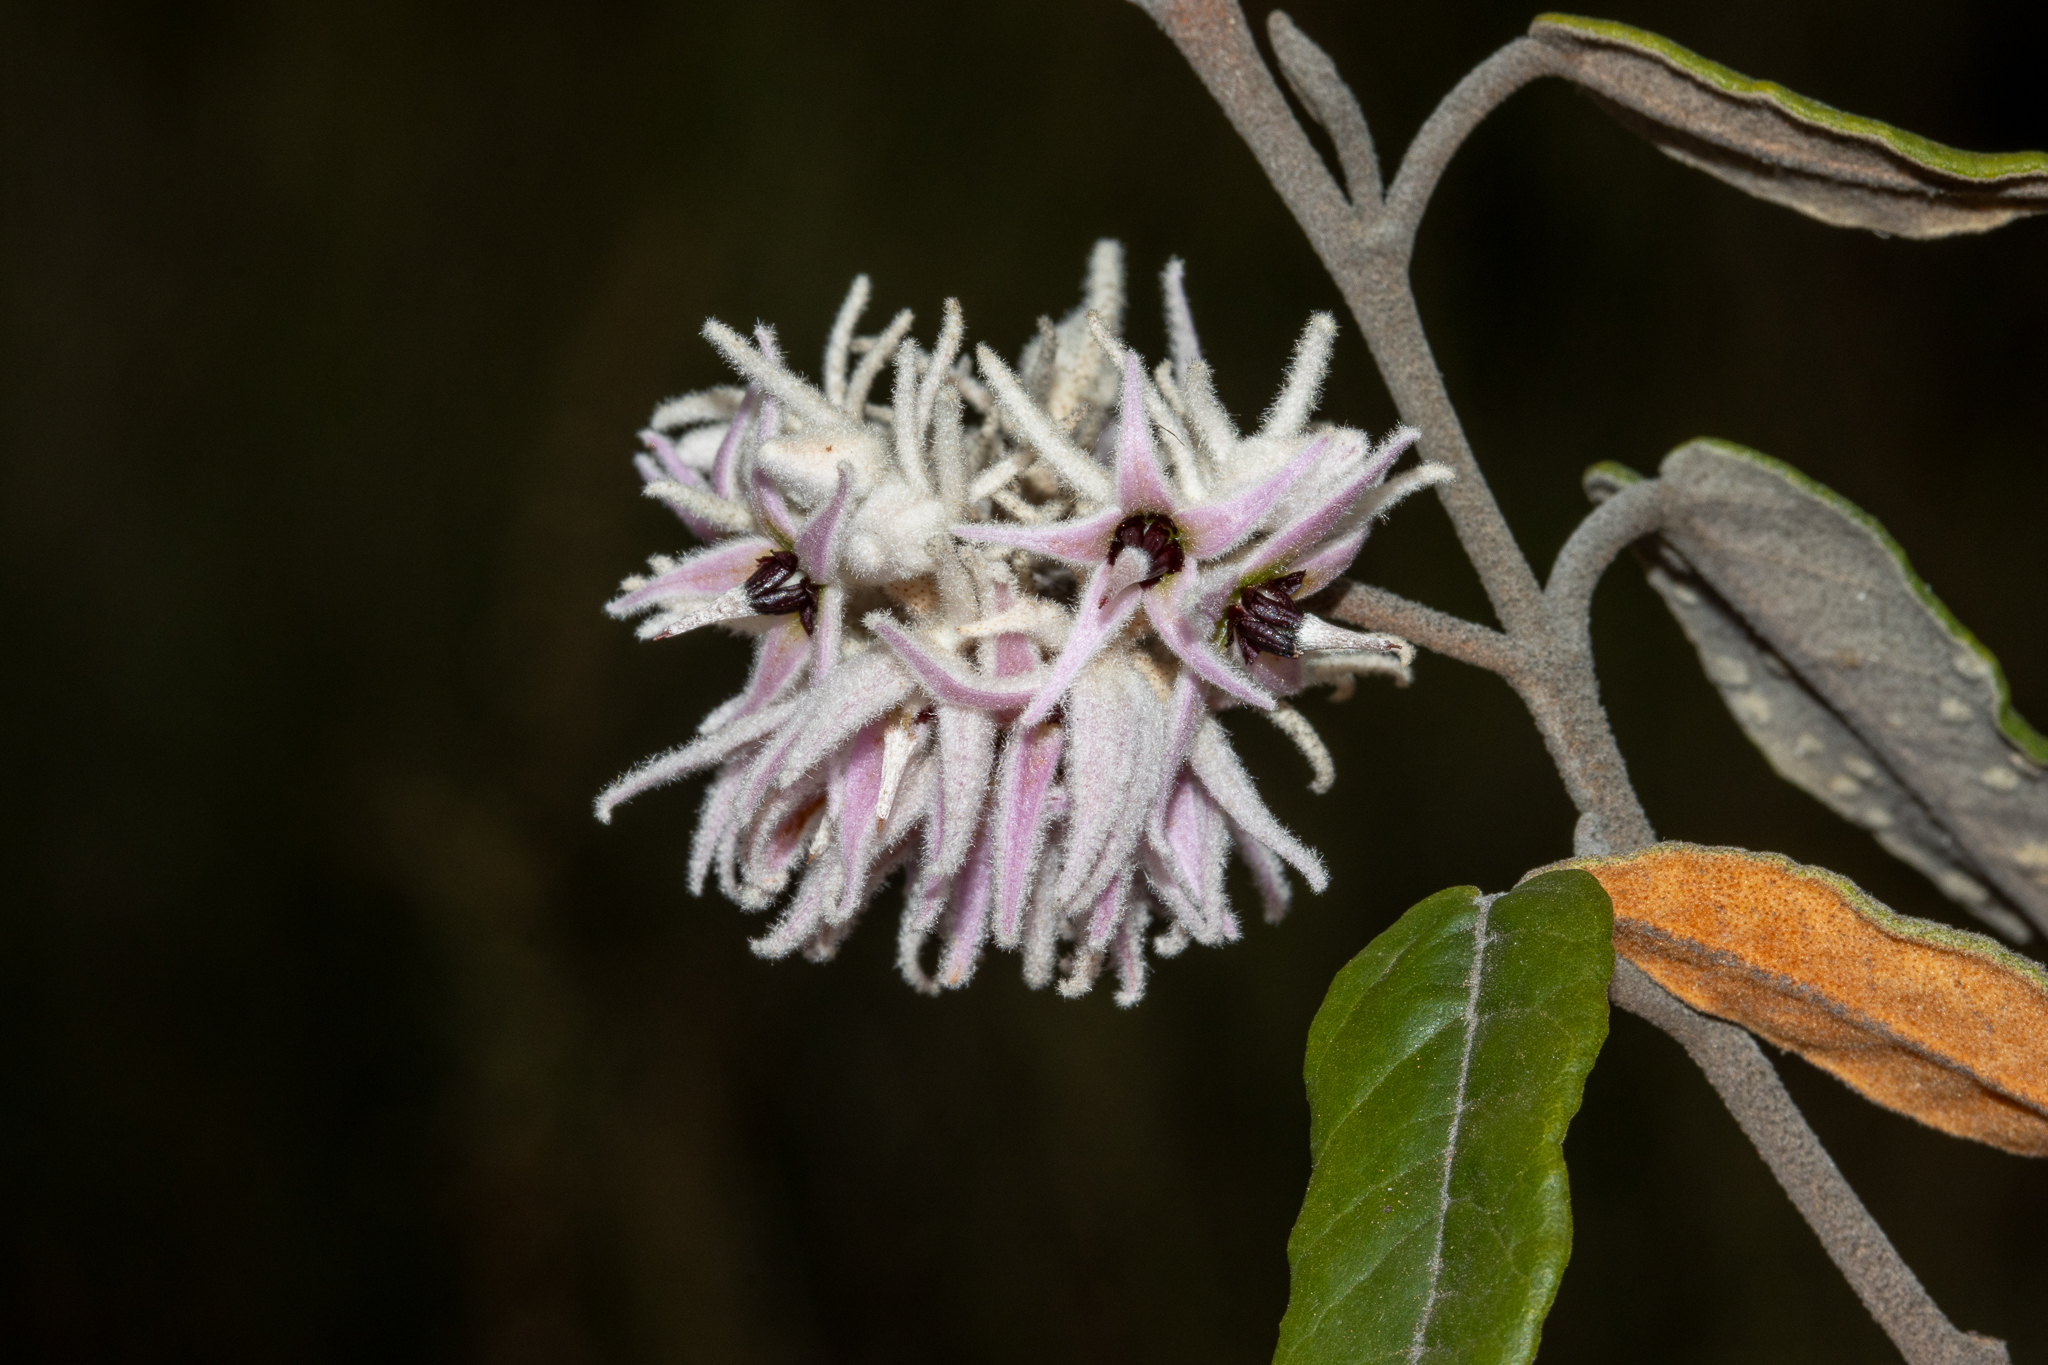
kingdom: Plantae
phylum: Tracheophyta
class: Magnoliopsida
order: Malvales
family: Malvaceae
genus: Lasiopetalum
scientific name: Lasiopetalum drummondii
